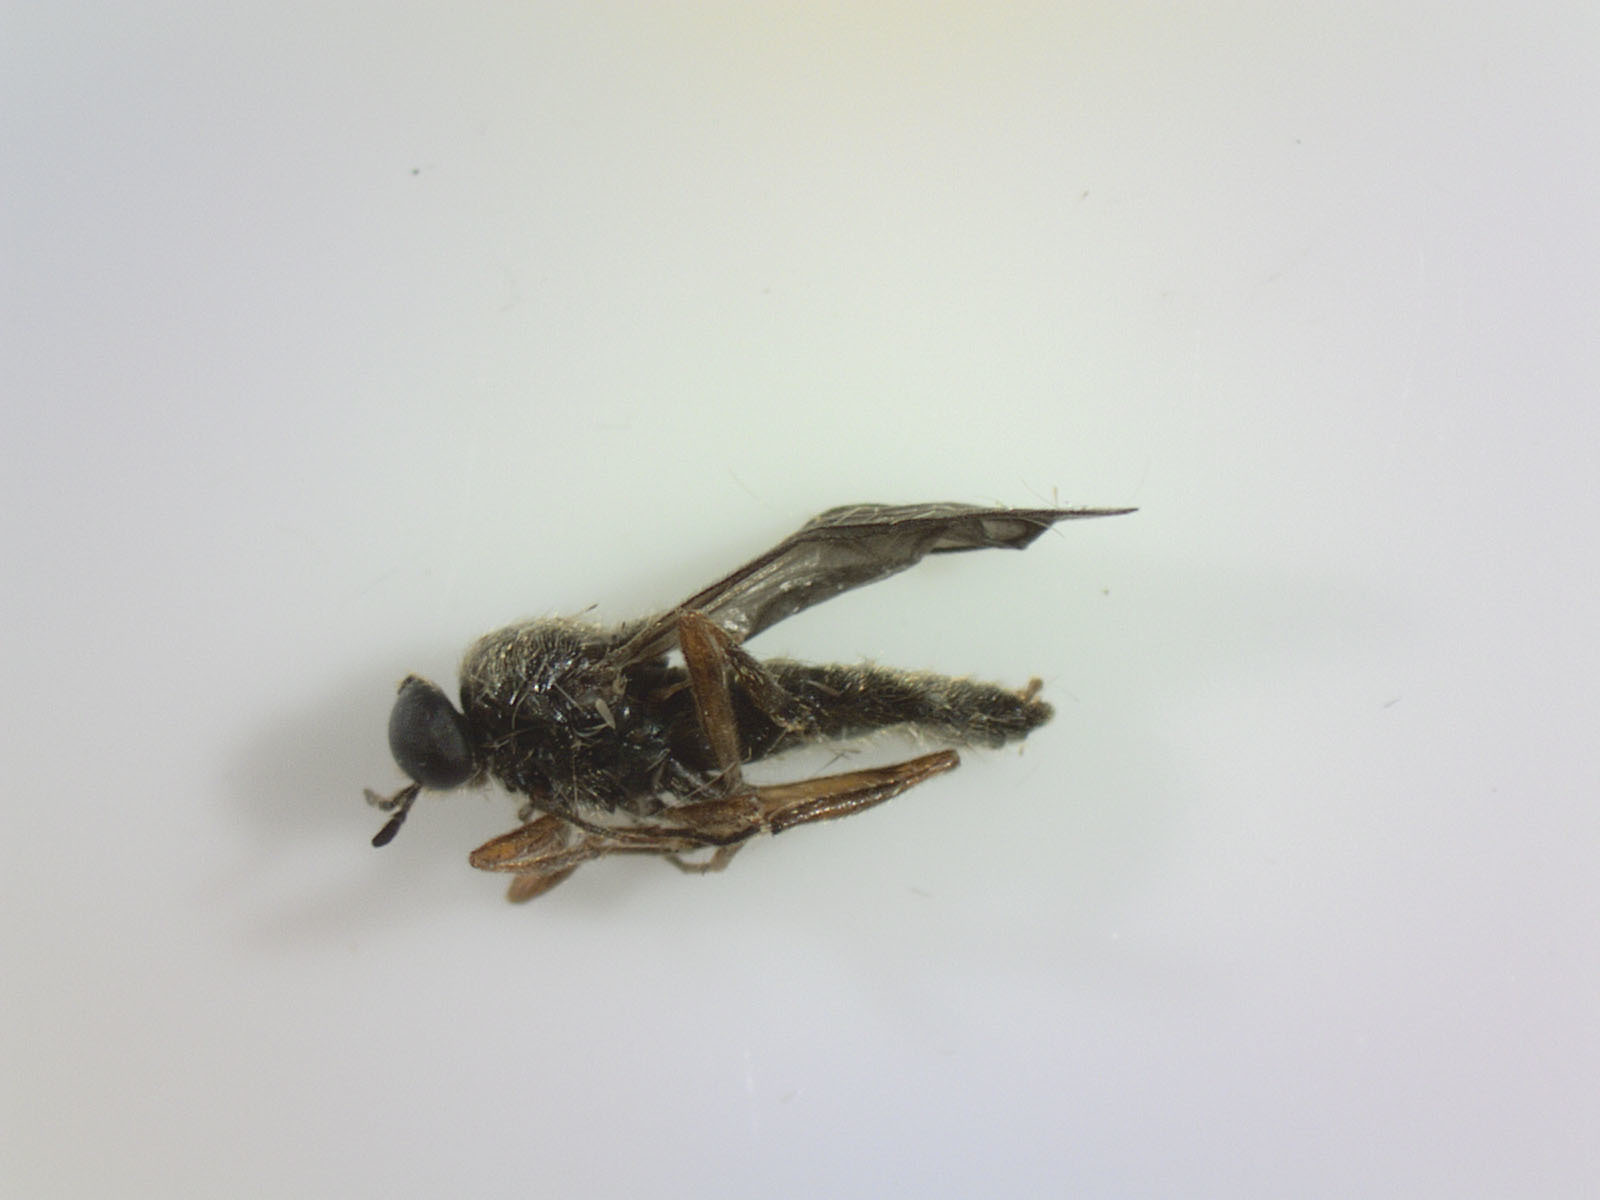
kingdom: Animalia
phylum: Arthropoda
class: Insecta
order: Diptera
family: Stratiomyidae
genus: Inopus
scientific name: Inopus rubriceps
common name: Soldier fly
